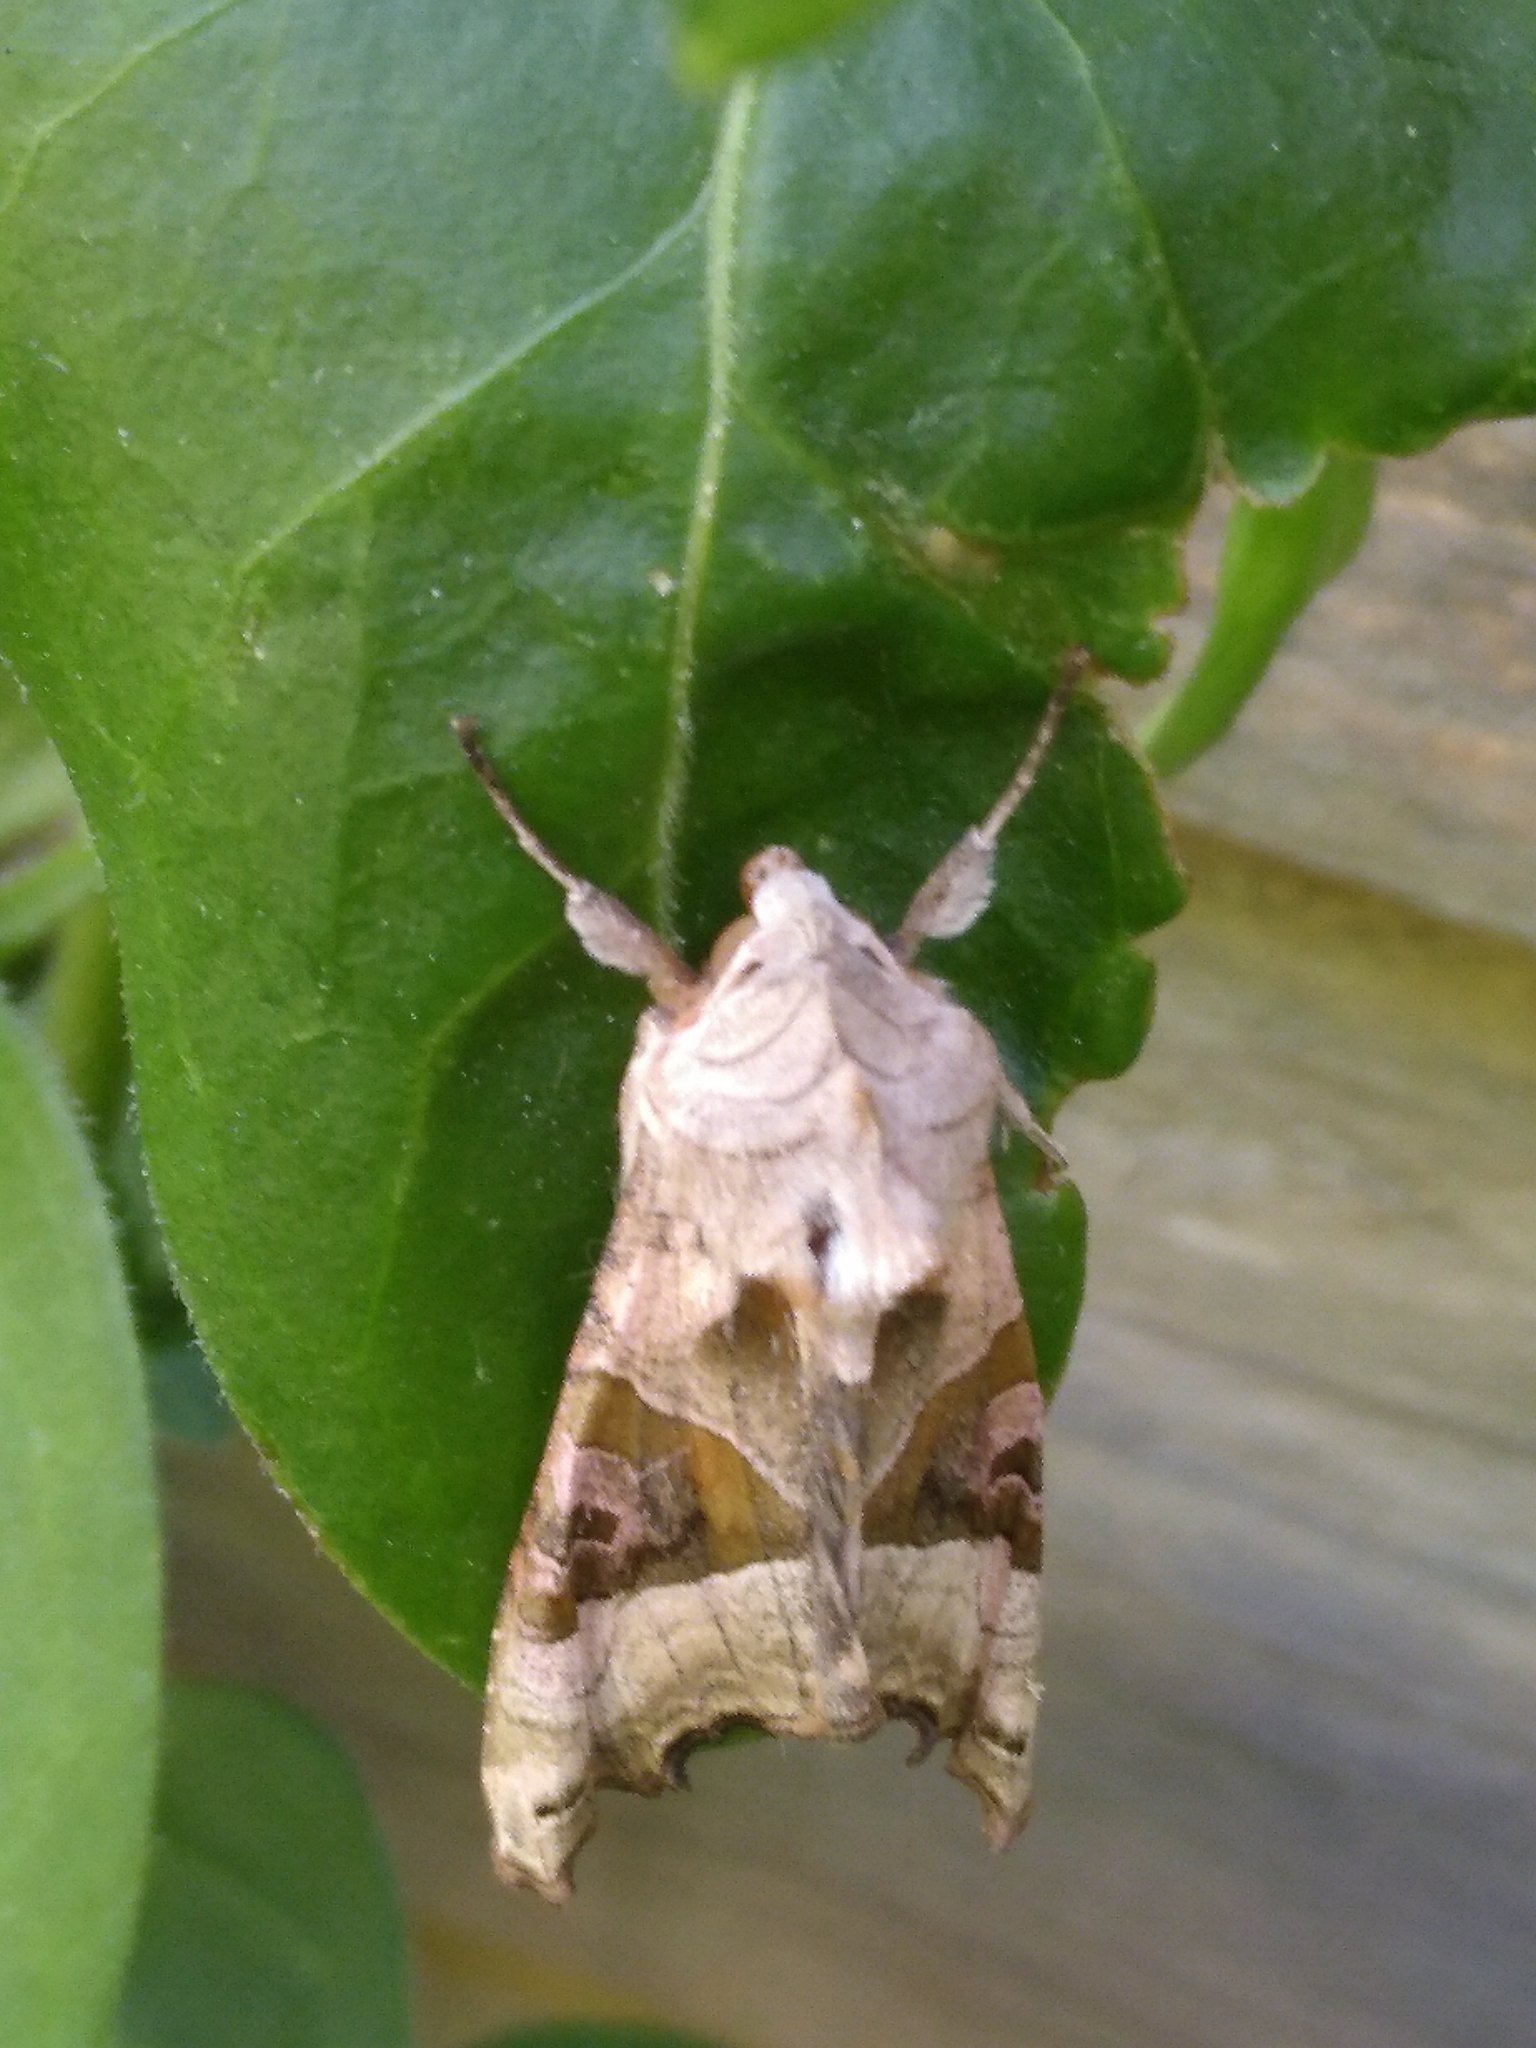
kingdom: Animalia
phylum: Arthropoda
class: Insecta
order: Lepidoptera
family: Noctuidae
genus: Phlogophora
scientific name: Phlogophora meticulosa
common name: Angle shades
